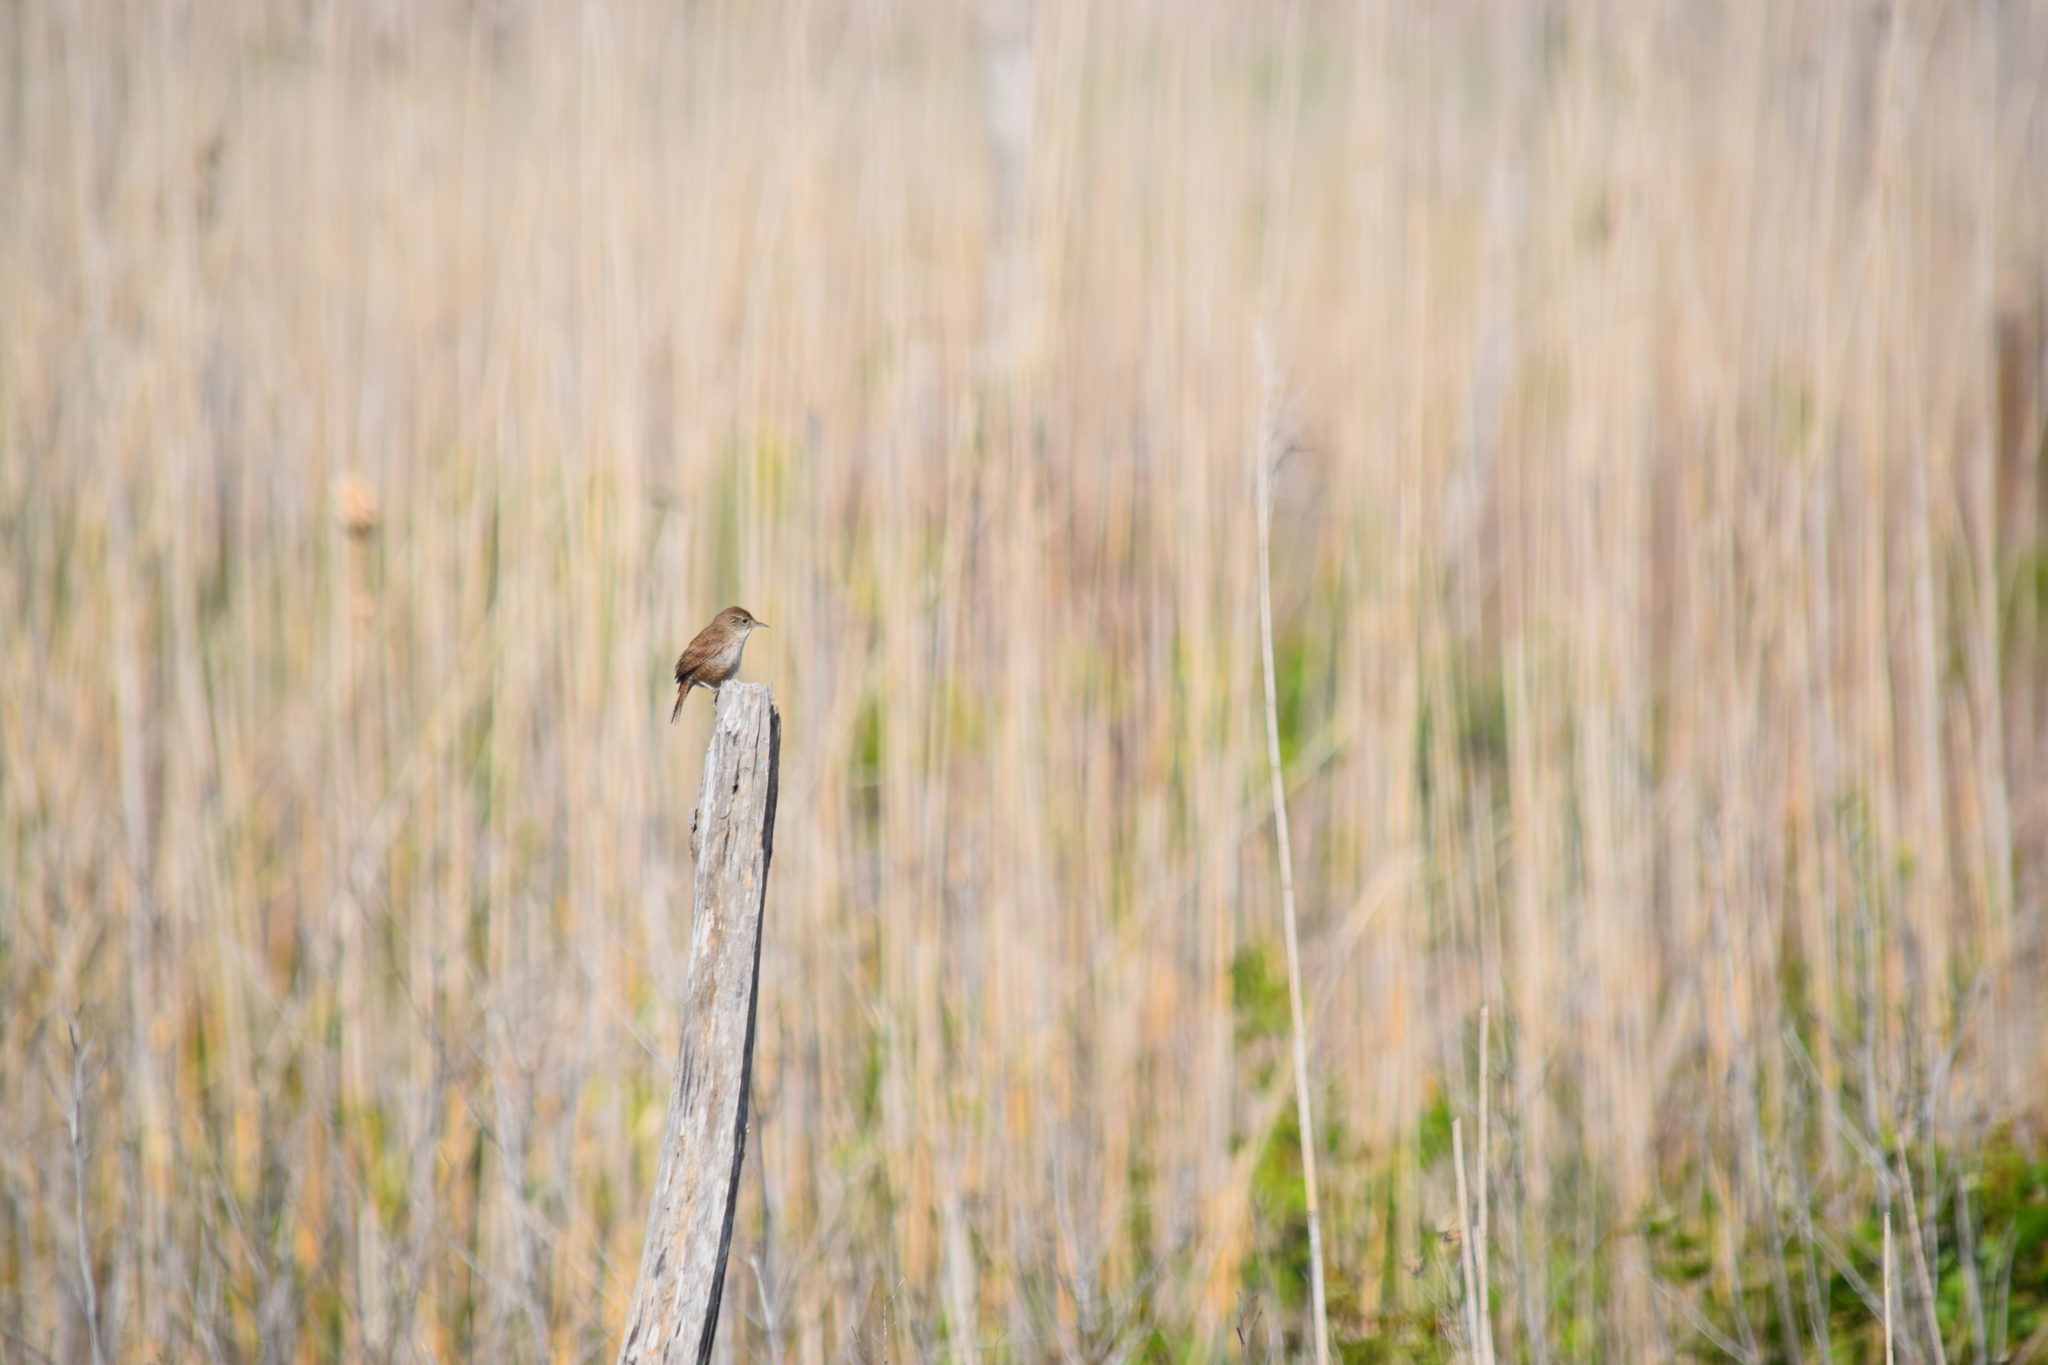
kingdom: Animalia
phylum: Chordata
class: Aves
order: Passeriformes
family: Troglodytidae
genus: Troglodytes
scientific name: Troglodytes aedon
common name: House wren
